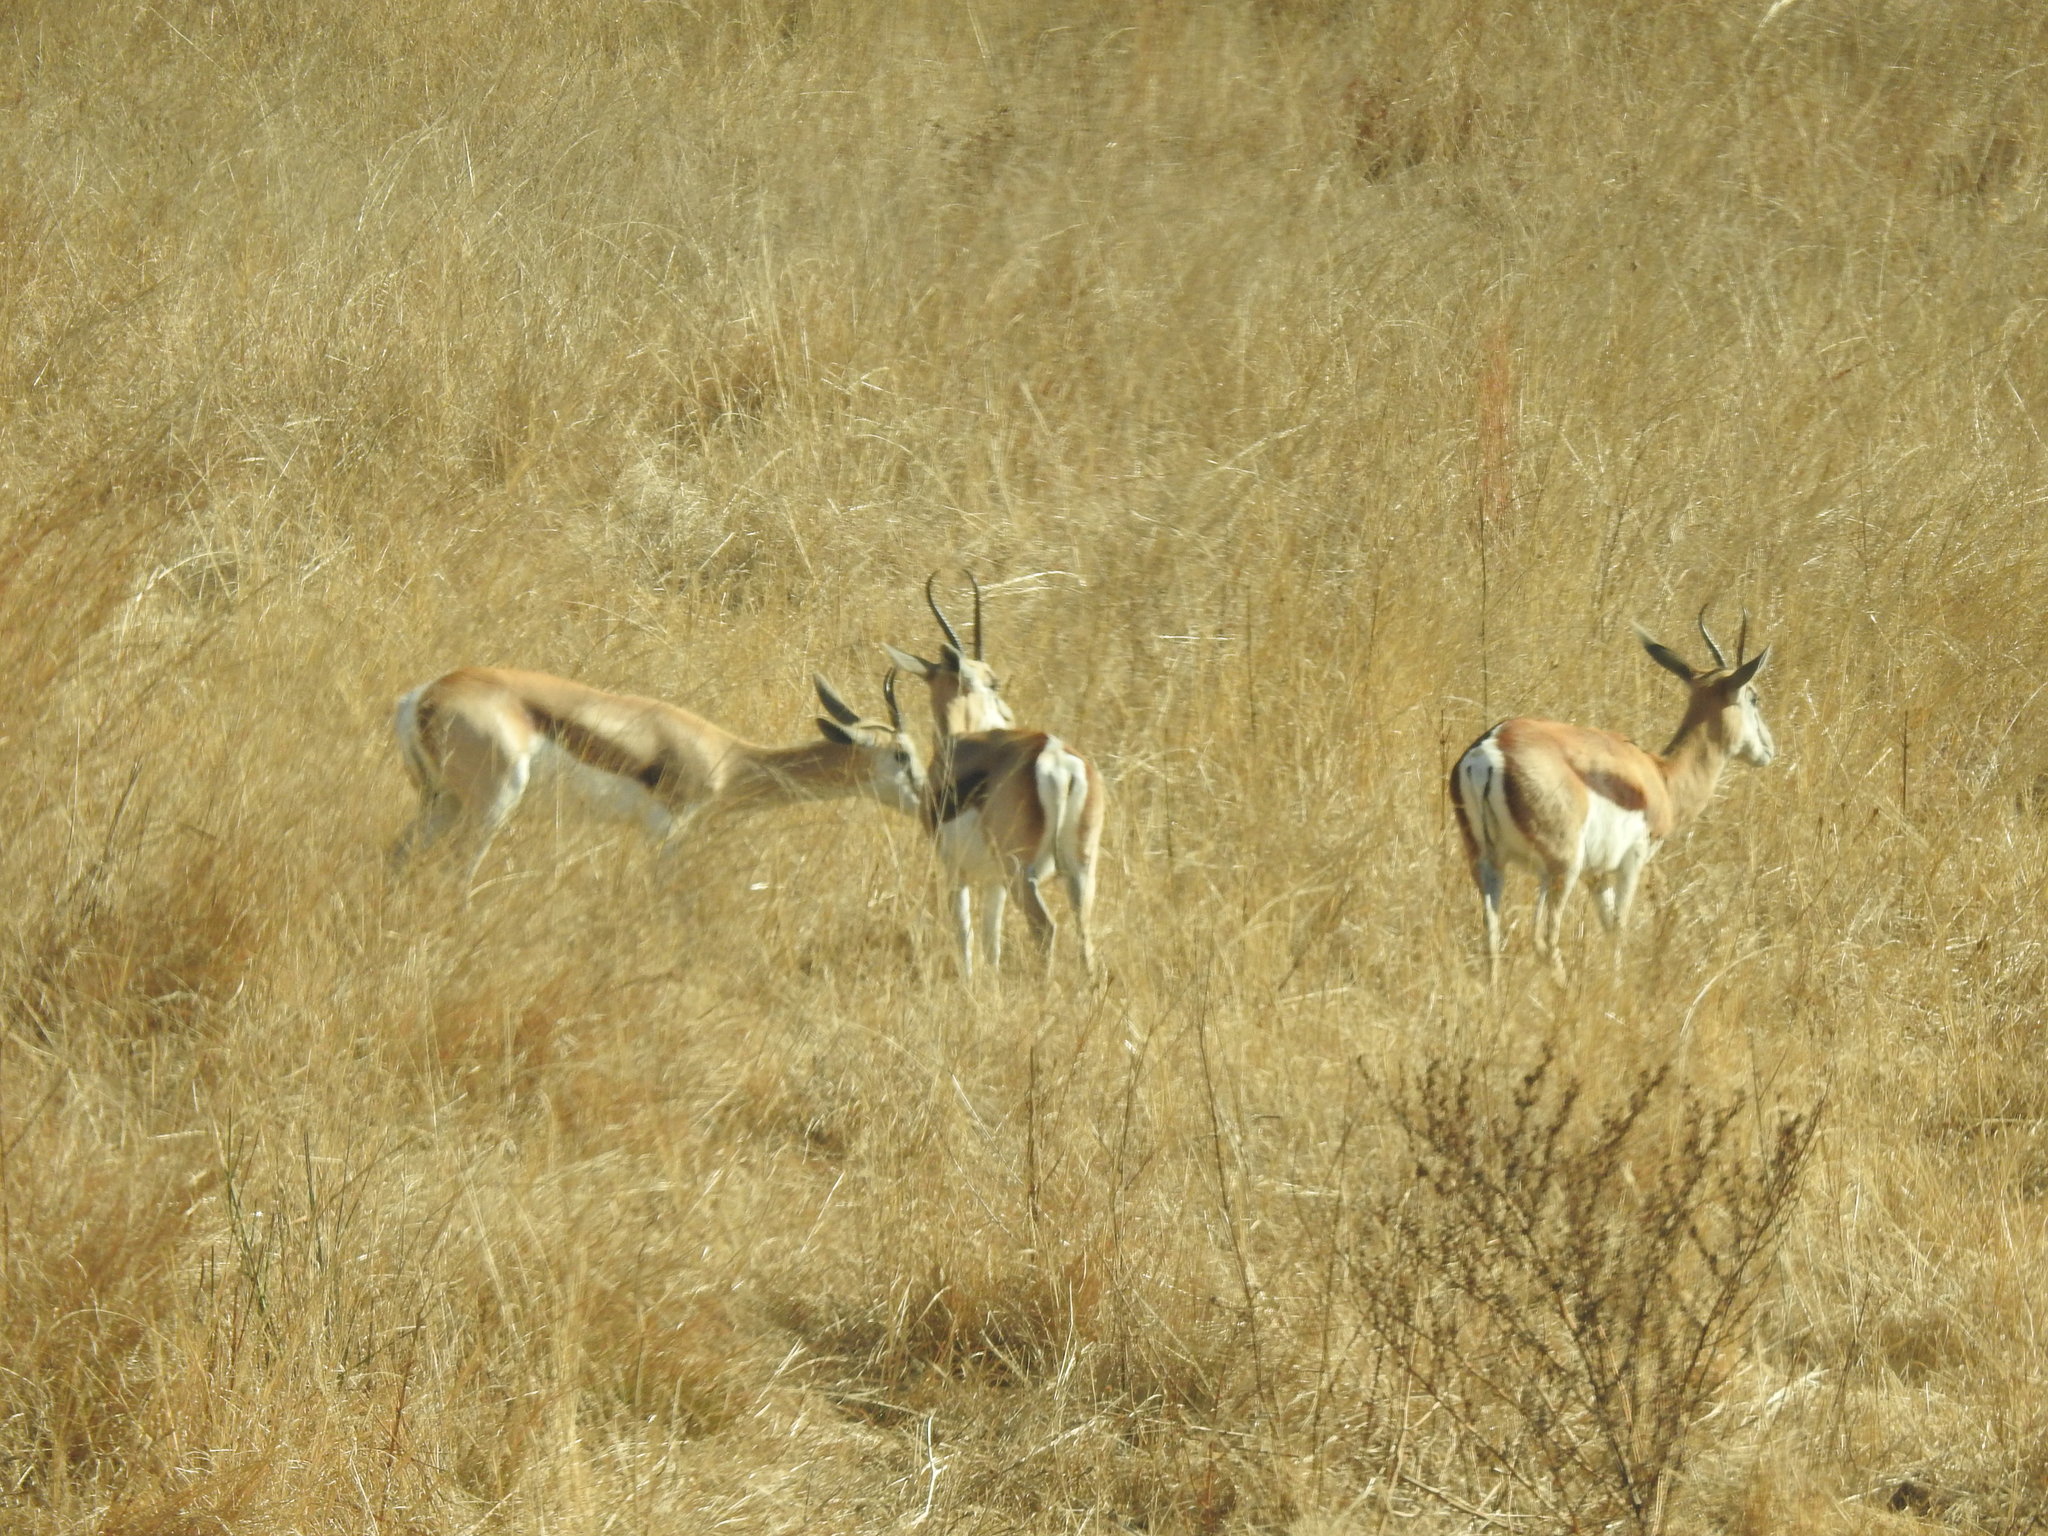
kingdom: Animalia
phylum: Chordata
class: Mammalia
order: Artiodactyla
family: Bovidae
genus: Antidorcas
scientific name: Antidorcas marsupialis
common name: Springbok
